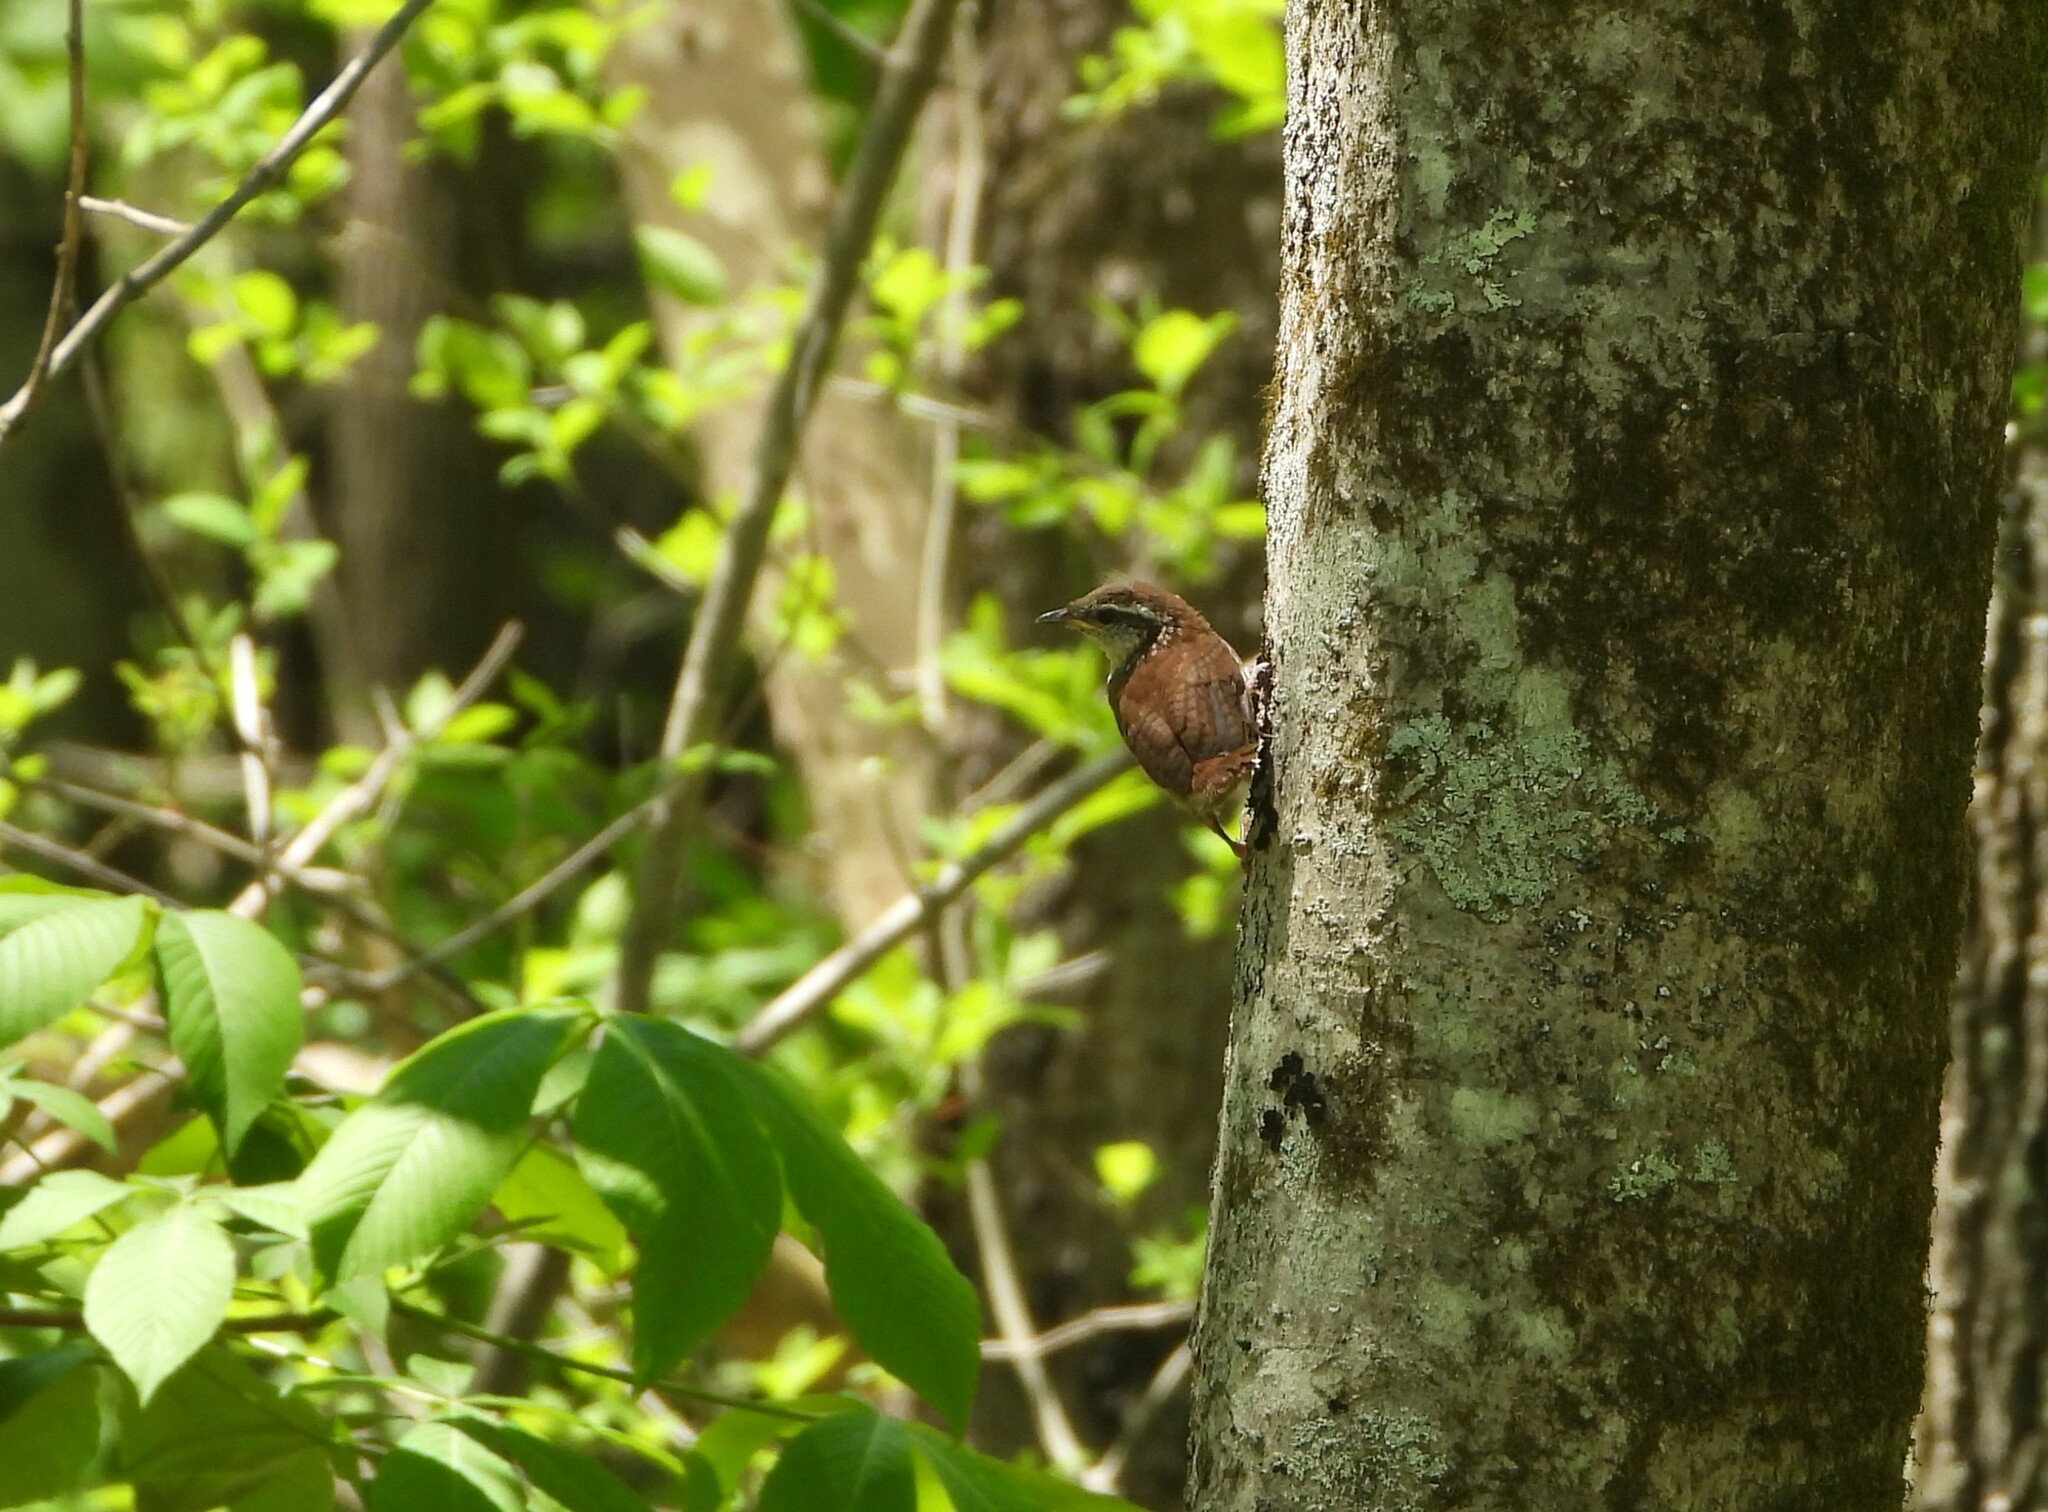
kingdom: Animalia
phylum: Chordata
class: Aves
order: Passeriformes
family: Troglodytidae
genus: Thryothorus
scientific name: Thryothorus ludovicianus
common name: Carolina wren
